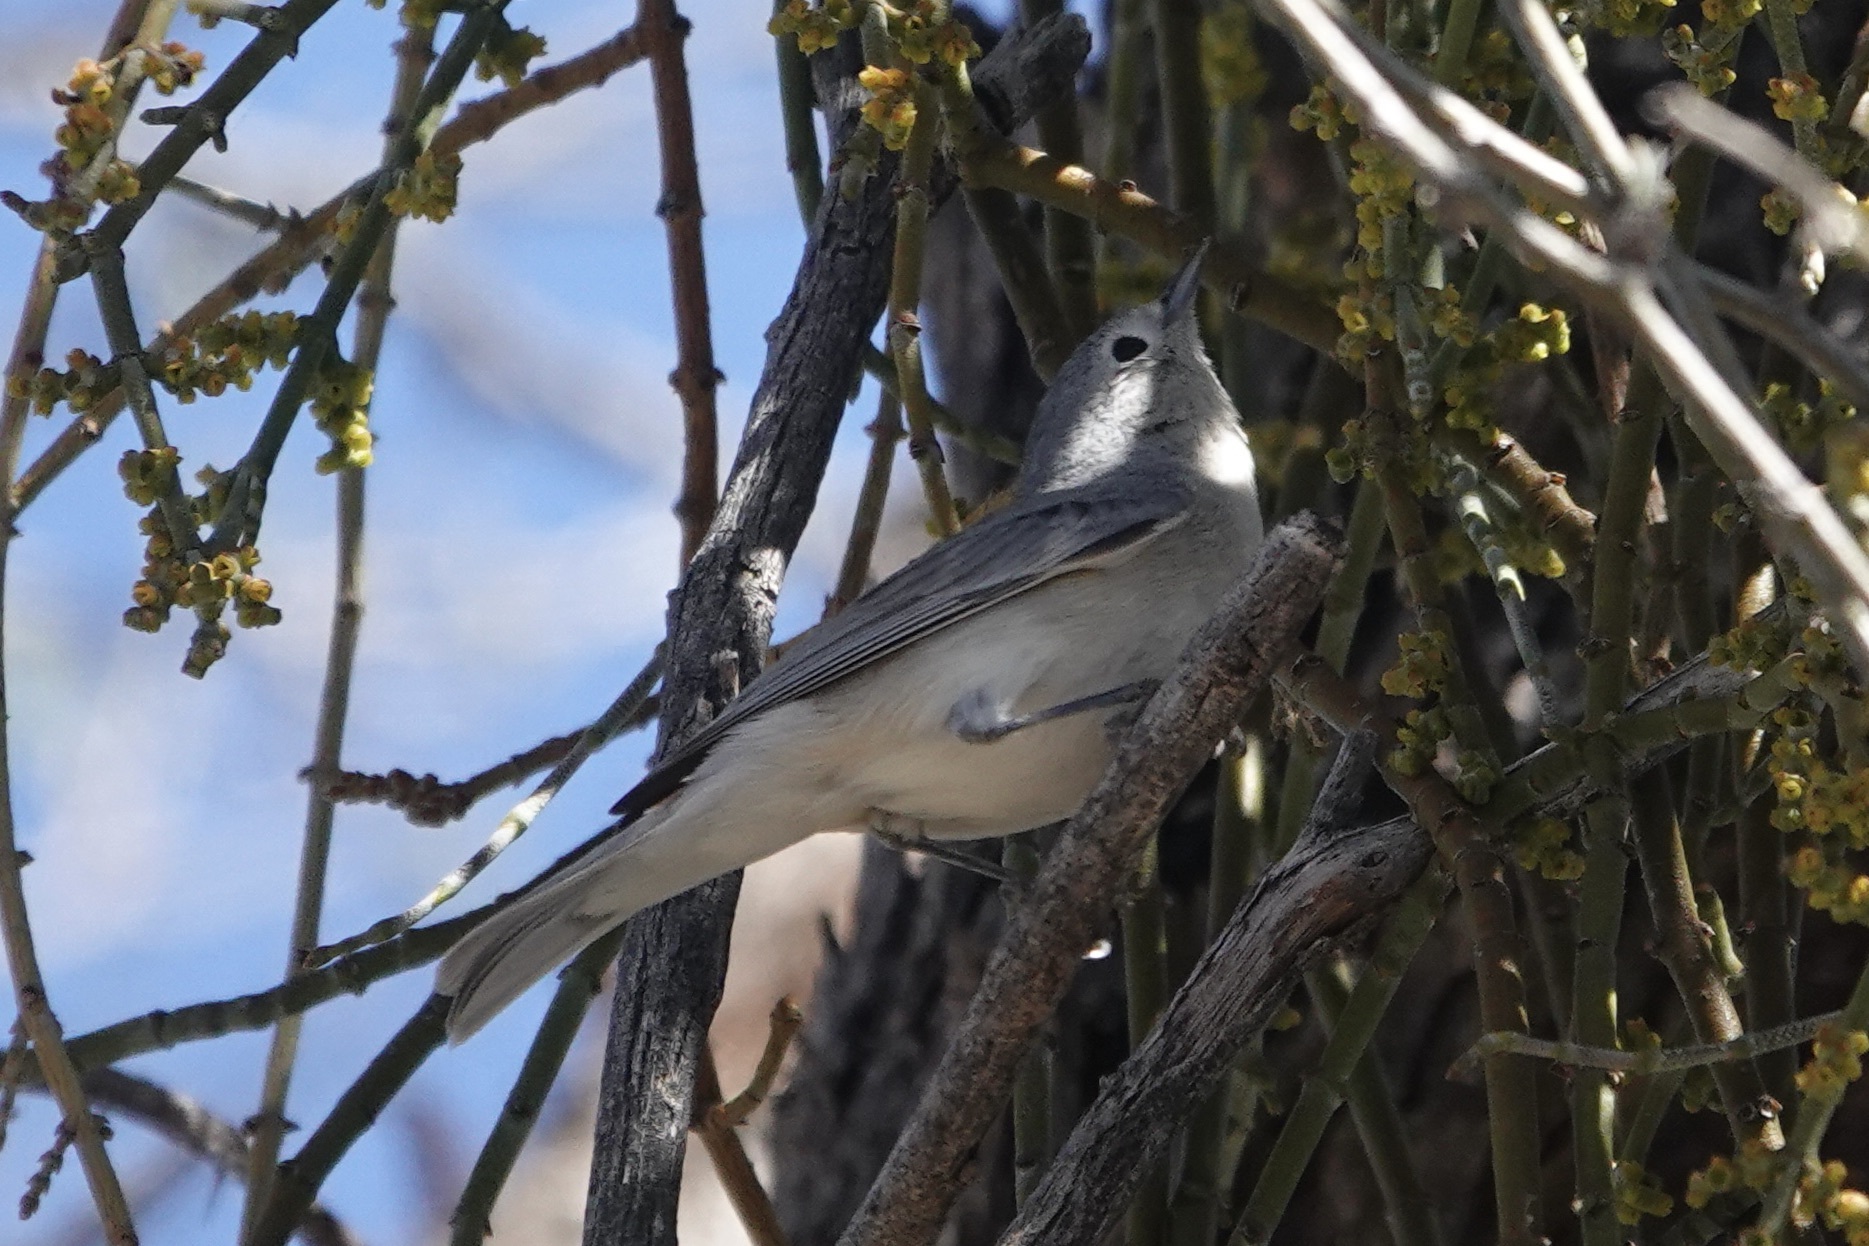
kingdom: Animalia
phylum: Chordata
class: Aves
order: Passeriformes
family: Parulidae
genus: Leiothlypis
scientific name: Leiothlypis luciae
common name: Lucy's warbler
